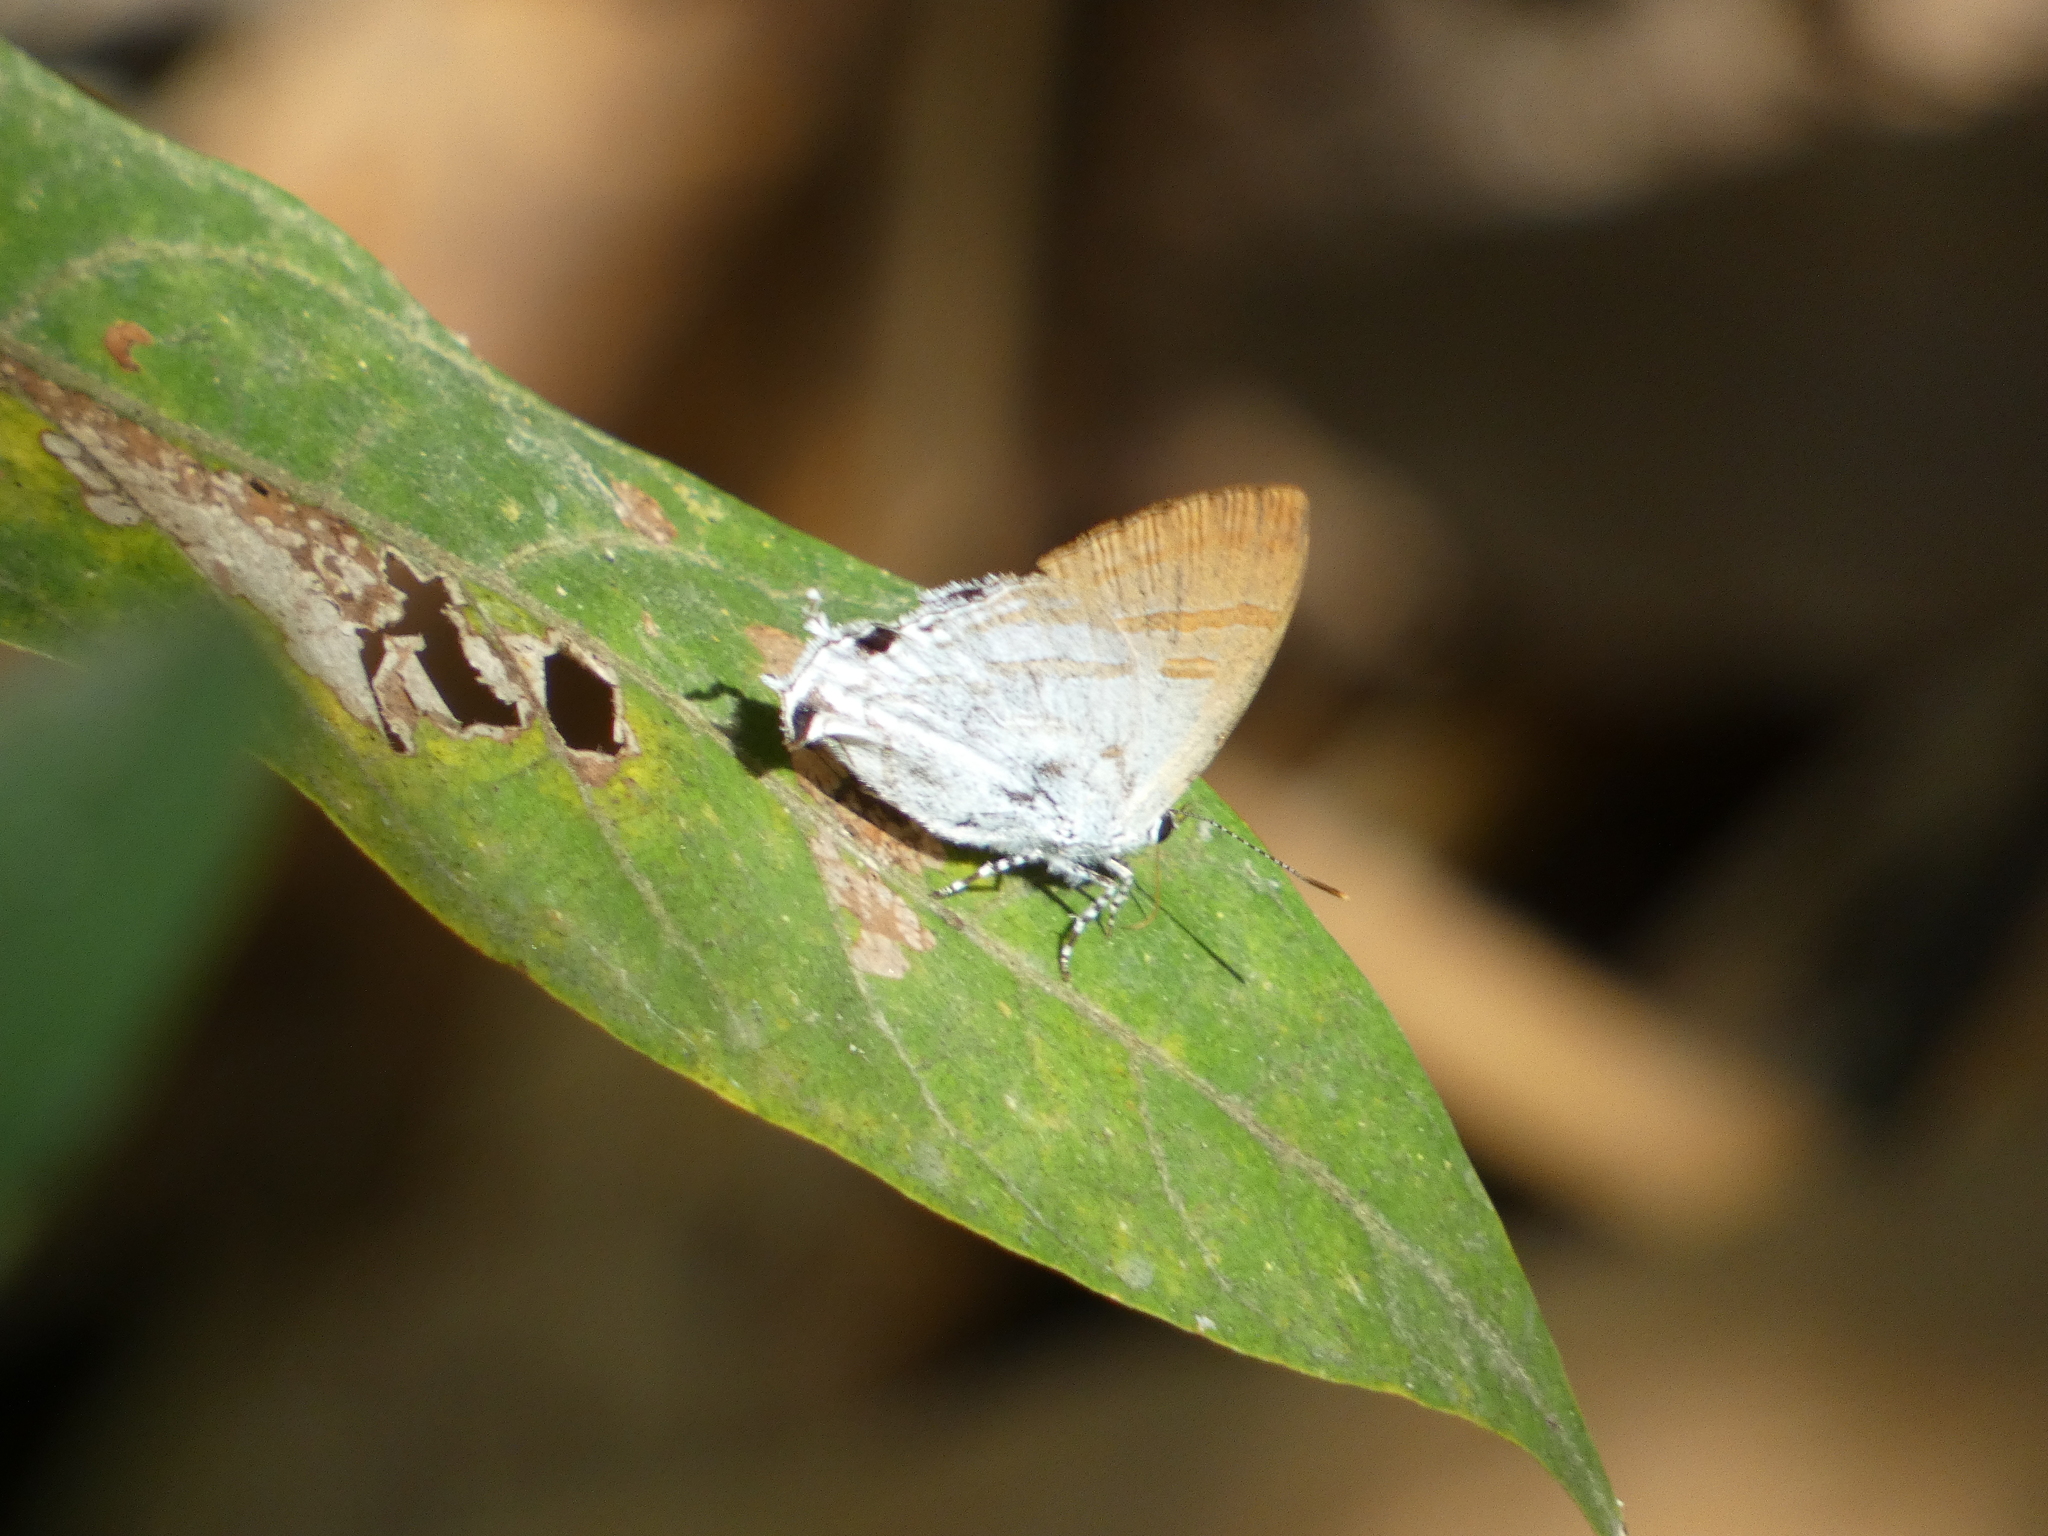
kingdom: Animalia
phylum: Arthropoda
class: Insecta
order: Lepidoptera
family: Lycaenidae
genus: Zeltus
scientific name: Zeltus amasa
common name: Fluffy tit
